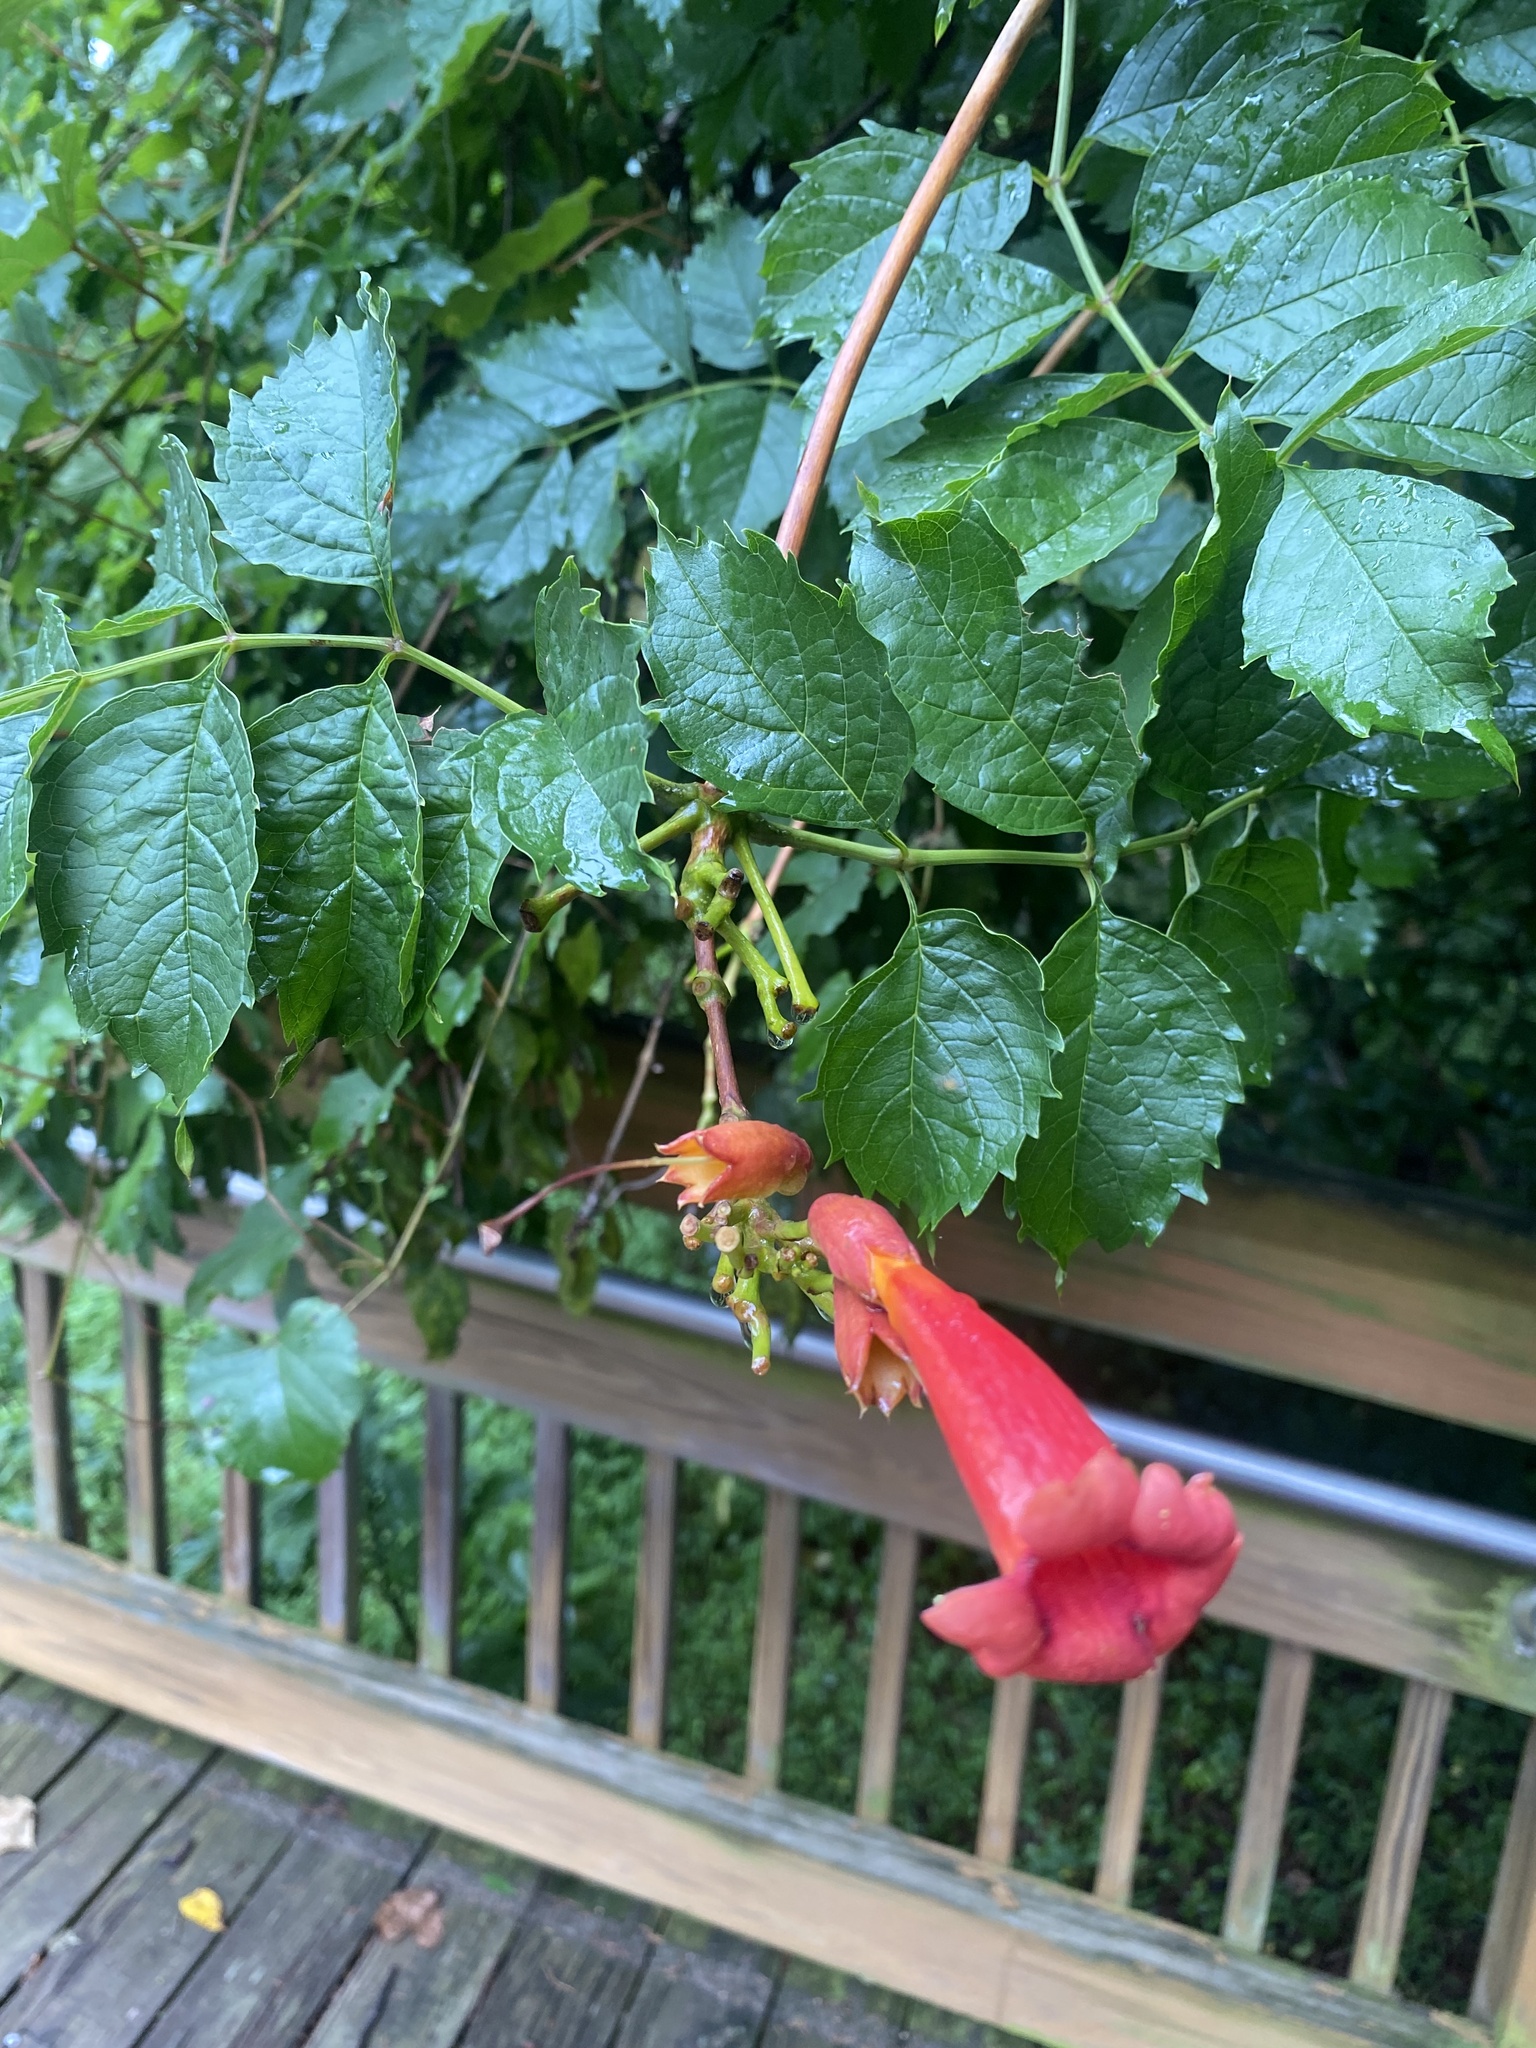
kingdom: Plantae
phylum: Tracheophyta
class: Magnoliopsida
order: Lamiales
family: Bignoniaceae
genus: Campsis
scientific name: Campsis radicans
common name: Trumpet-creeper
